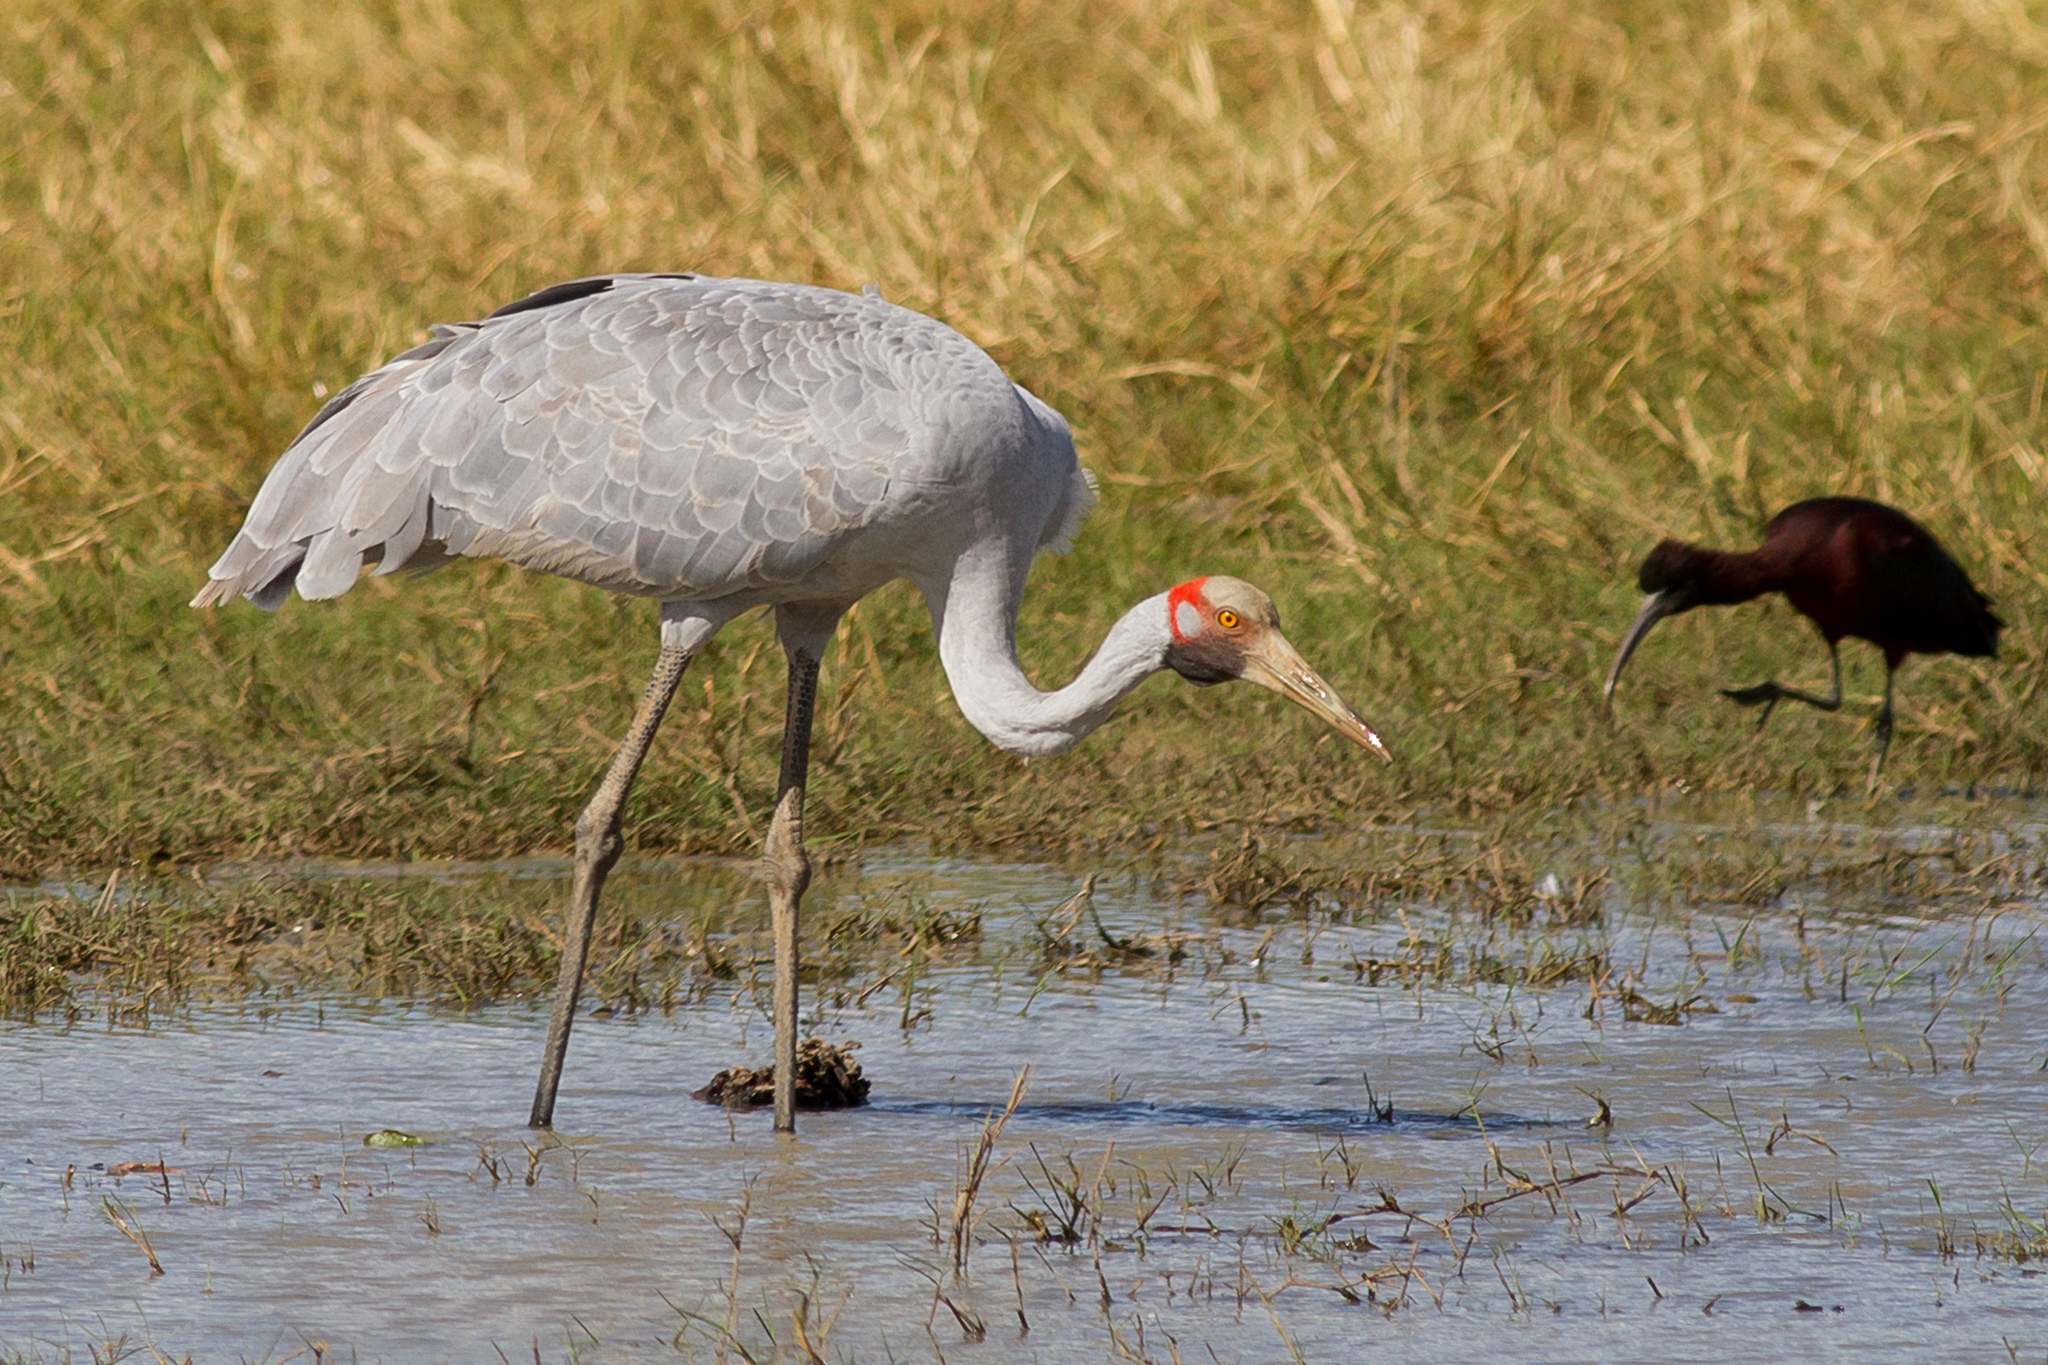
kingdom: Animalia
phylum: Chordata
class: Aves
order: Gruiformes
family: Gruidae
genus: Grus
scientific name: Grus rubicunda
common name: Brolga
